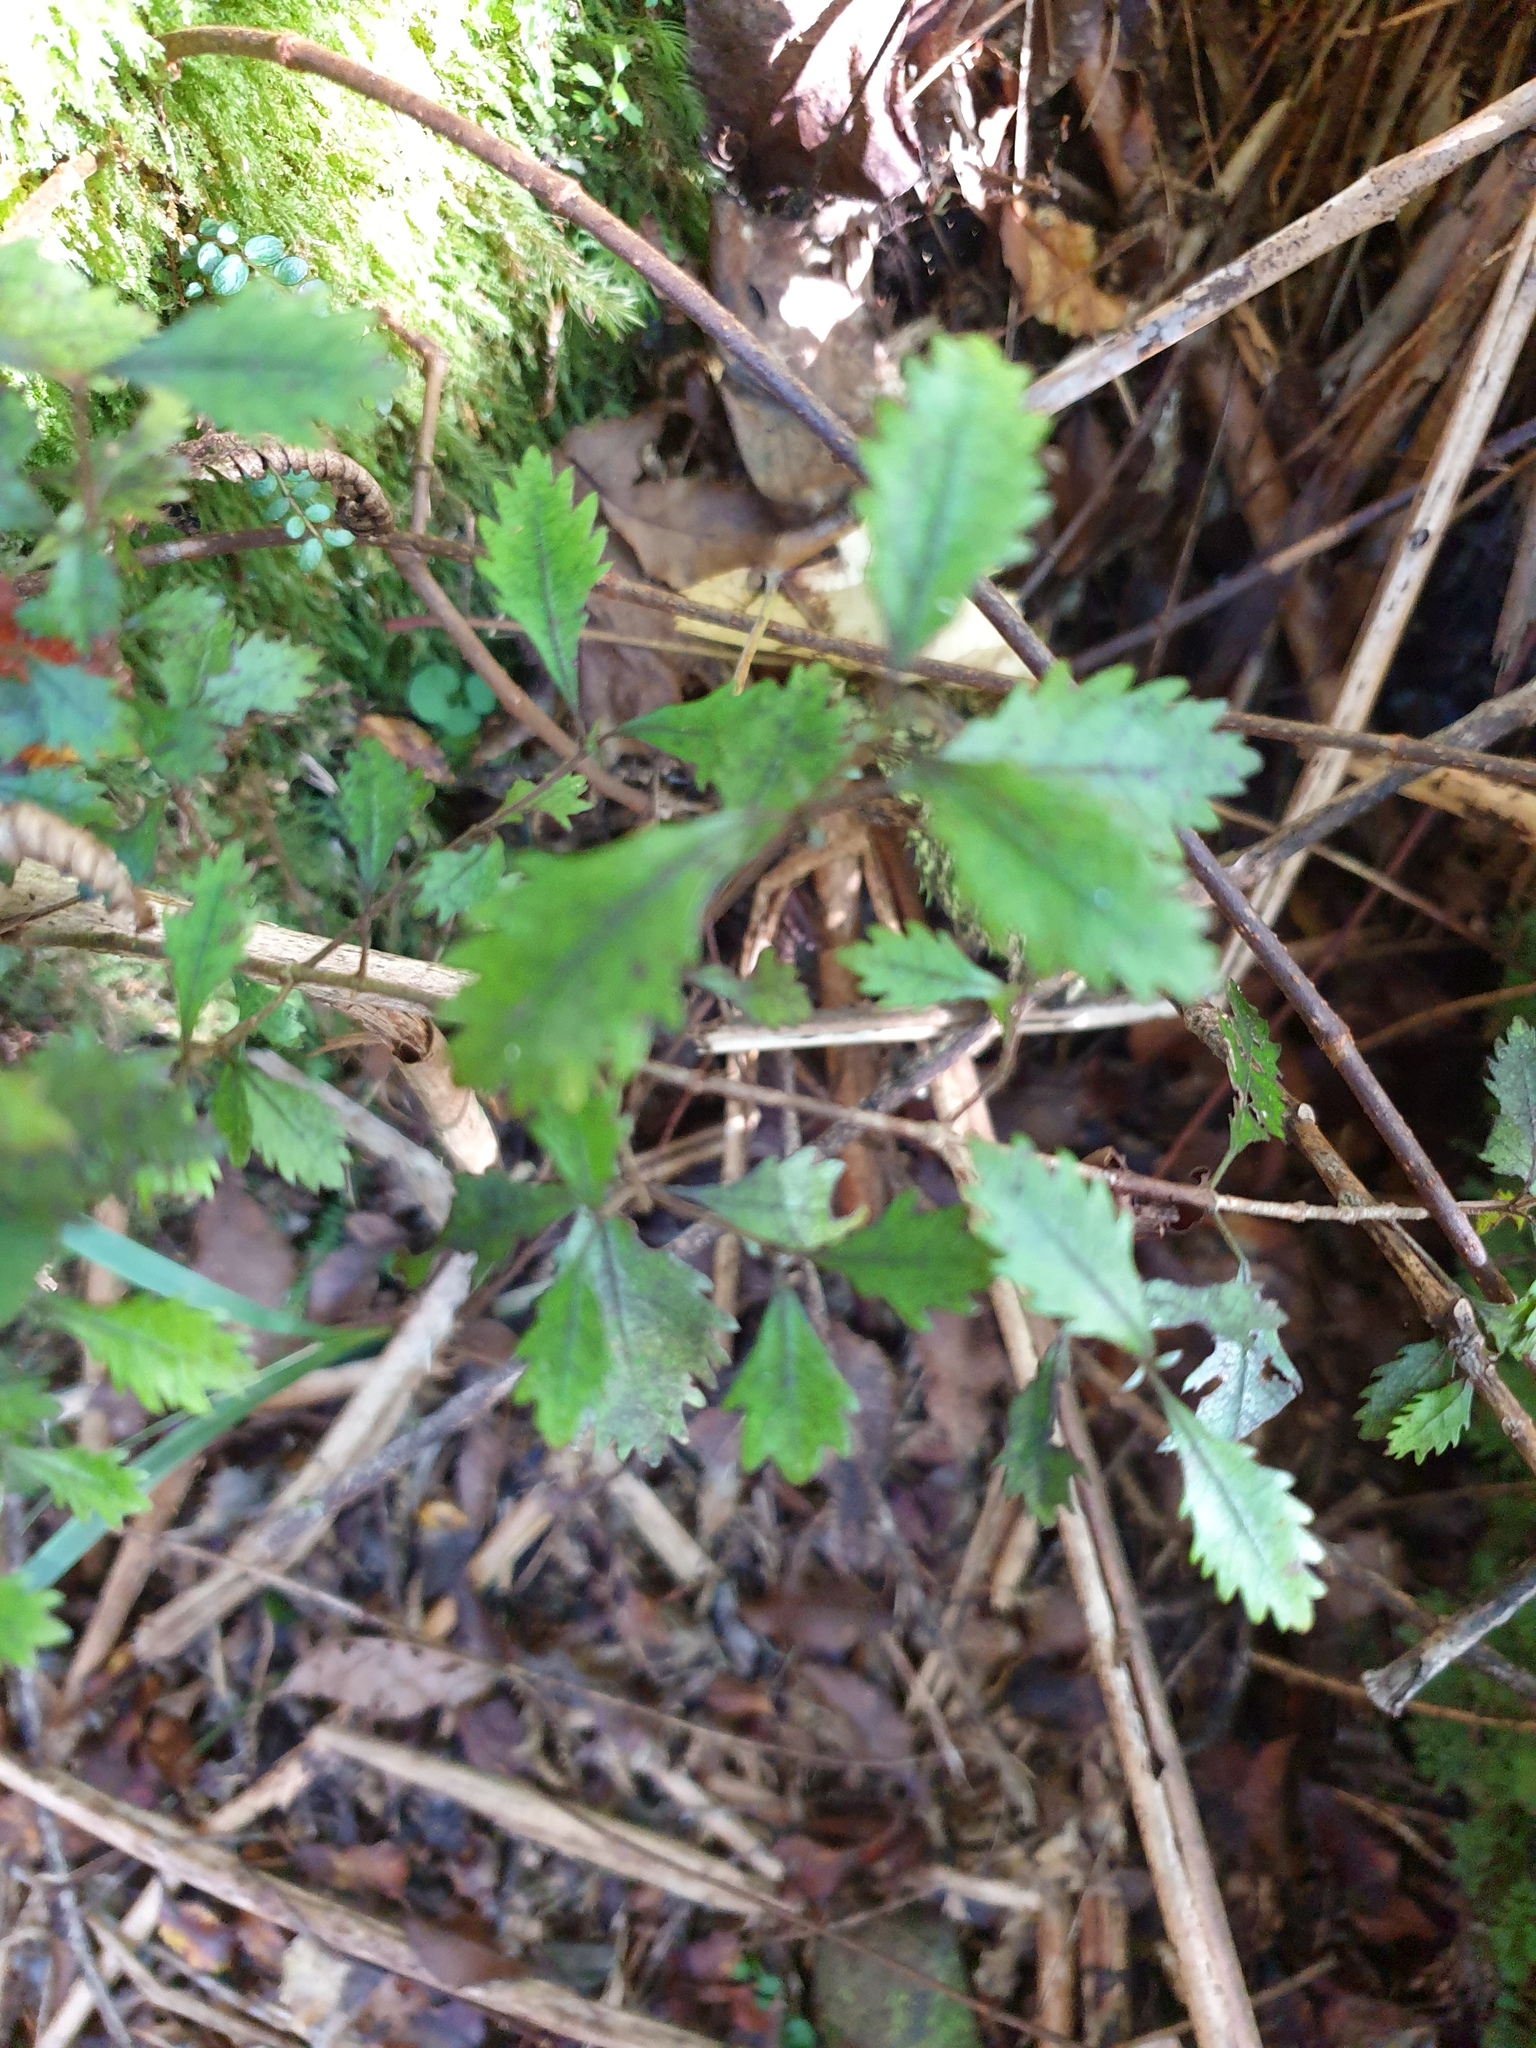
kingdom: Plantae
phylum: Tracheophyta
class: Magnoliopsida
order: Oxalidales
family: Cunoniaceae
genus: Pterophylla
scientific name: Pterophylla racemosa
